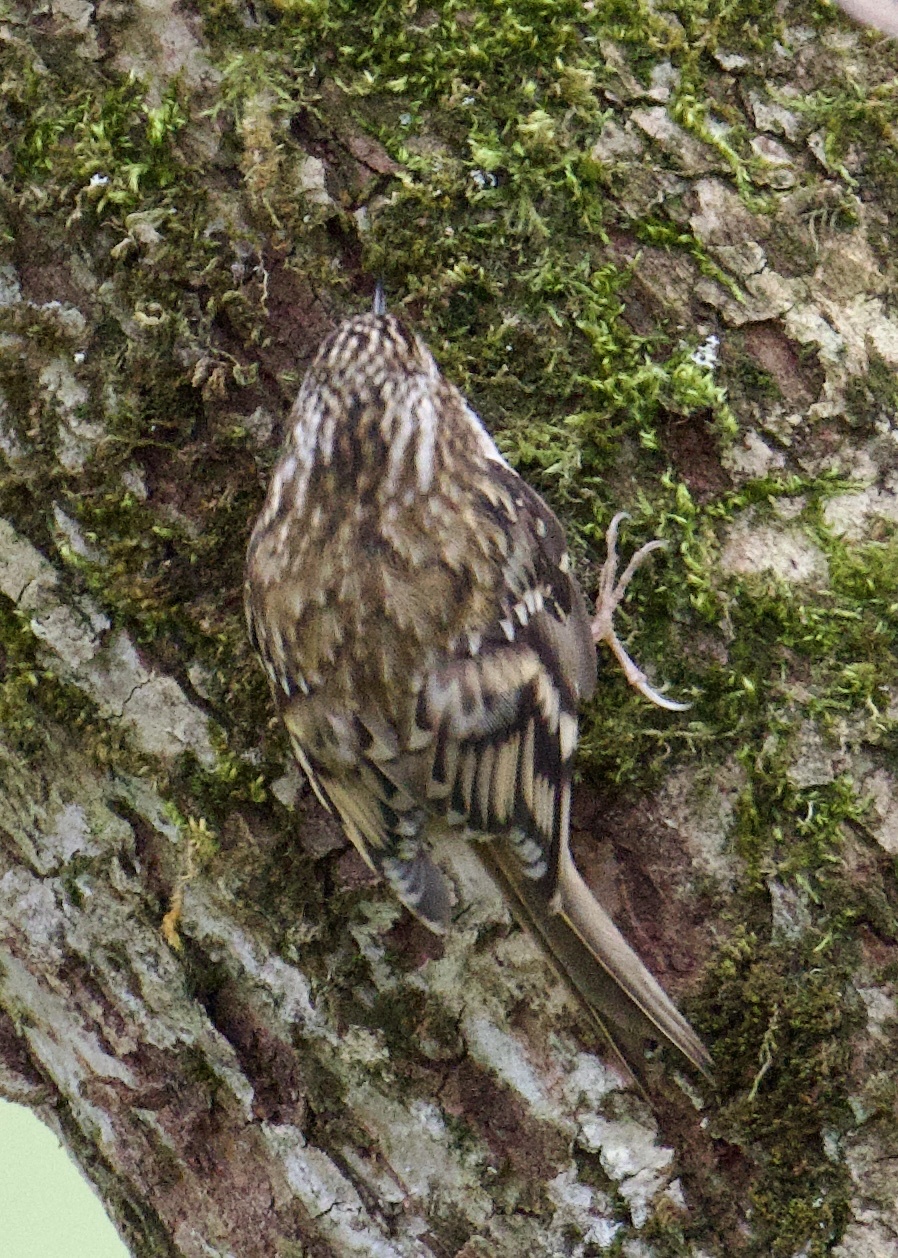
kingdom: Animalia
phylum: Chordata
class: Aves
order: Passeriformes
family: Certhiidae
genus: Certhia
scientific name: Certhia familiaris
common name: Eurasian treecreeper
